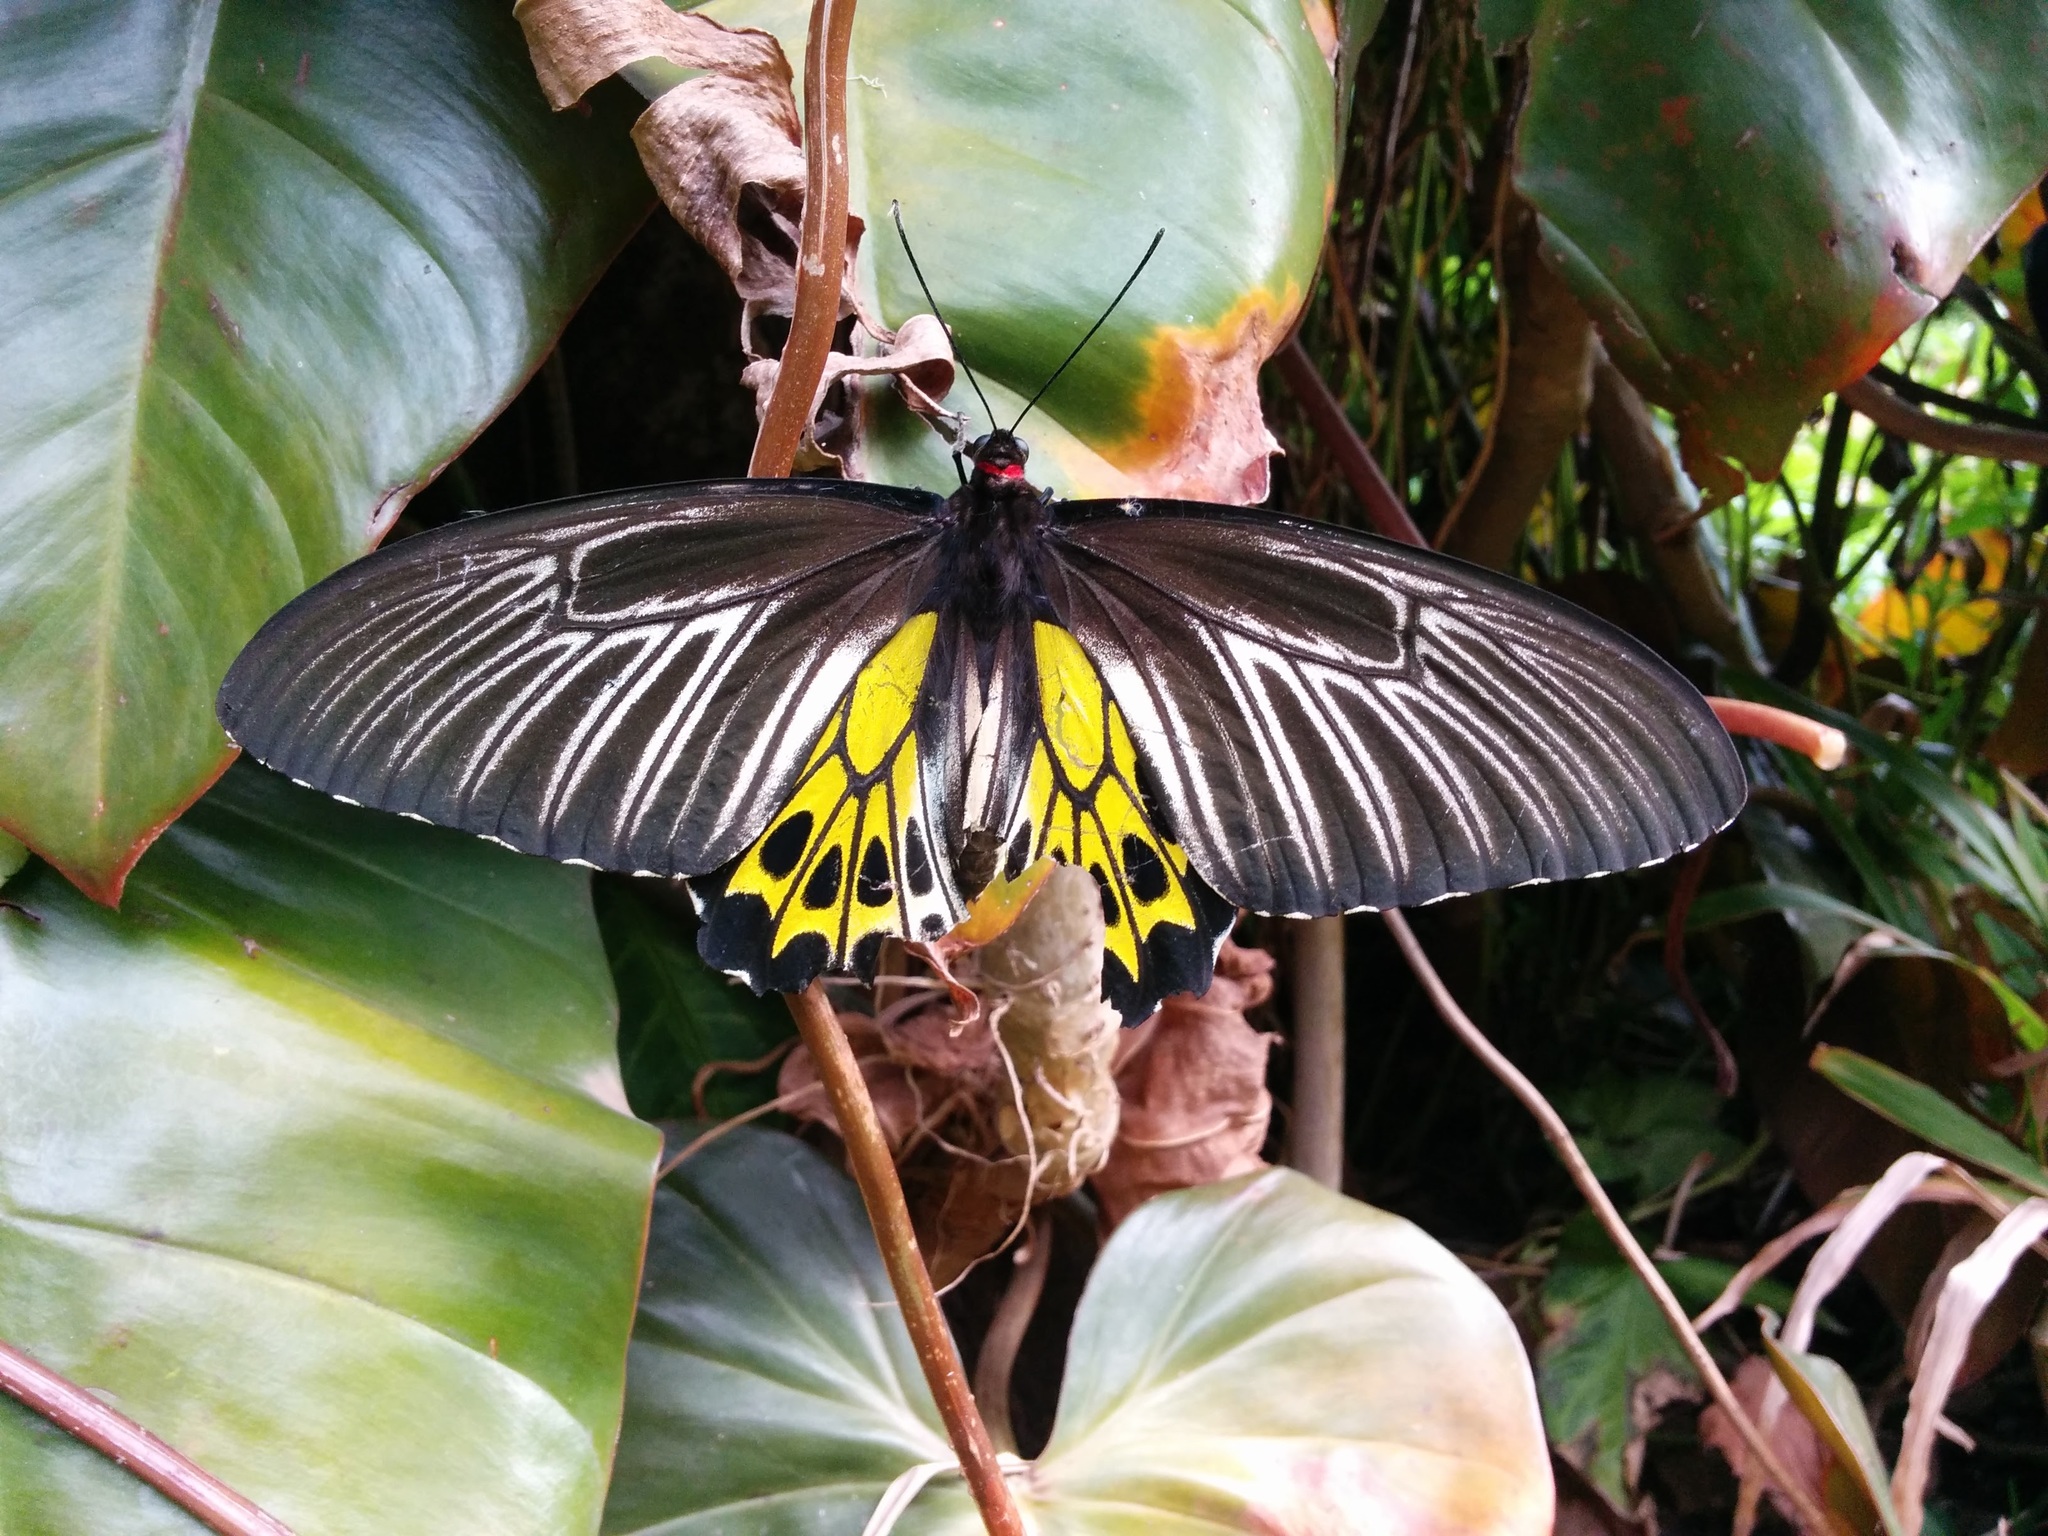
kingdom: Animalia
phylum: Arthropoda
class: Insecta
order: Lepidoptera
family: Papilionidae
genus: Troides
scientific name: Troides minos
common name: Malabar birdwing
